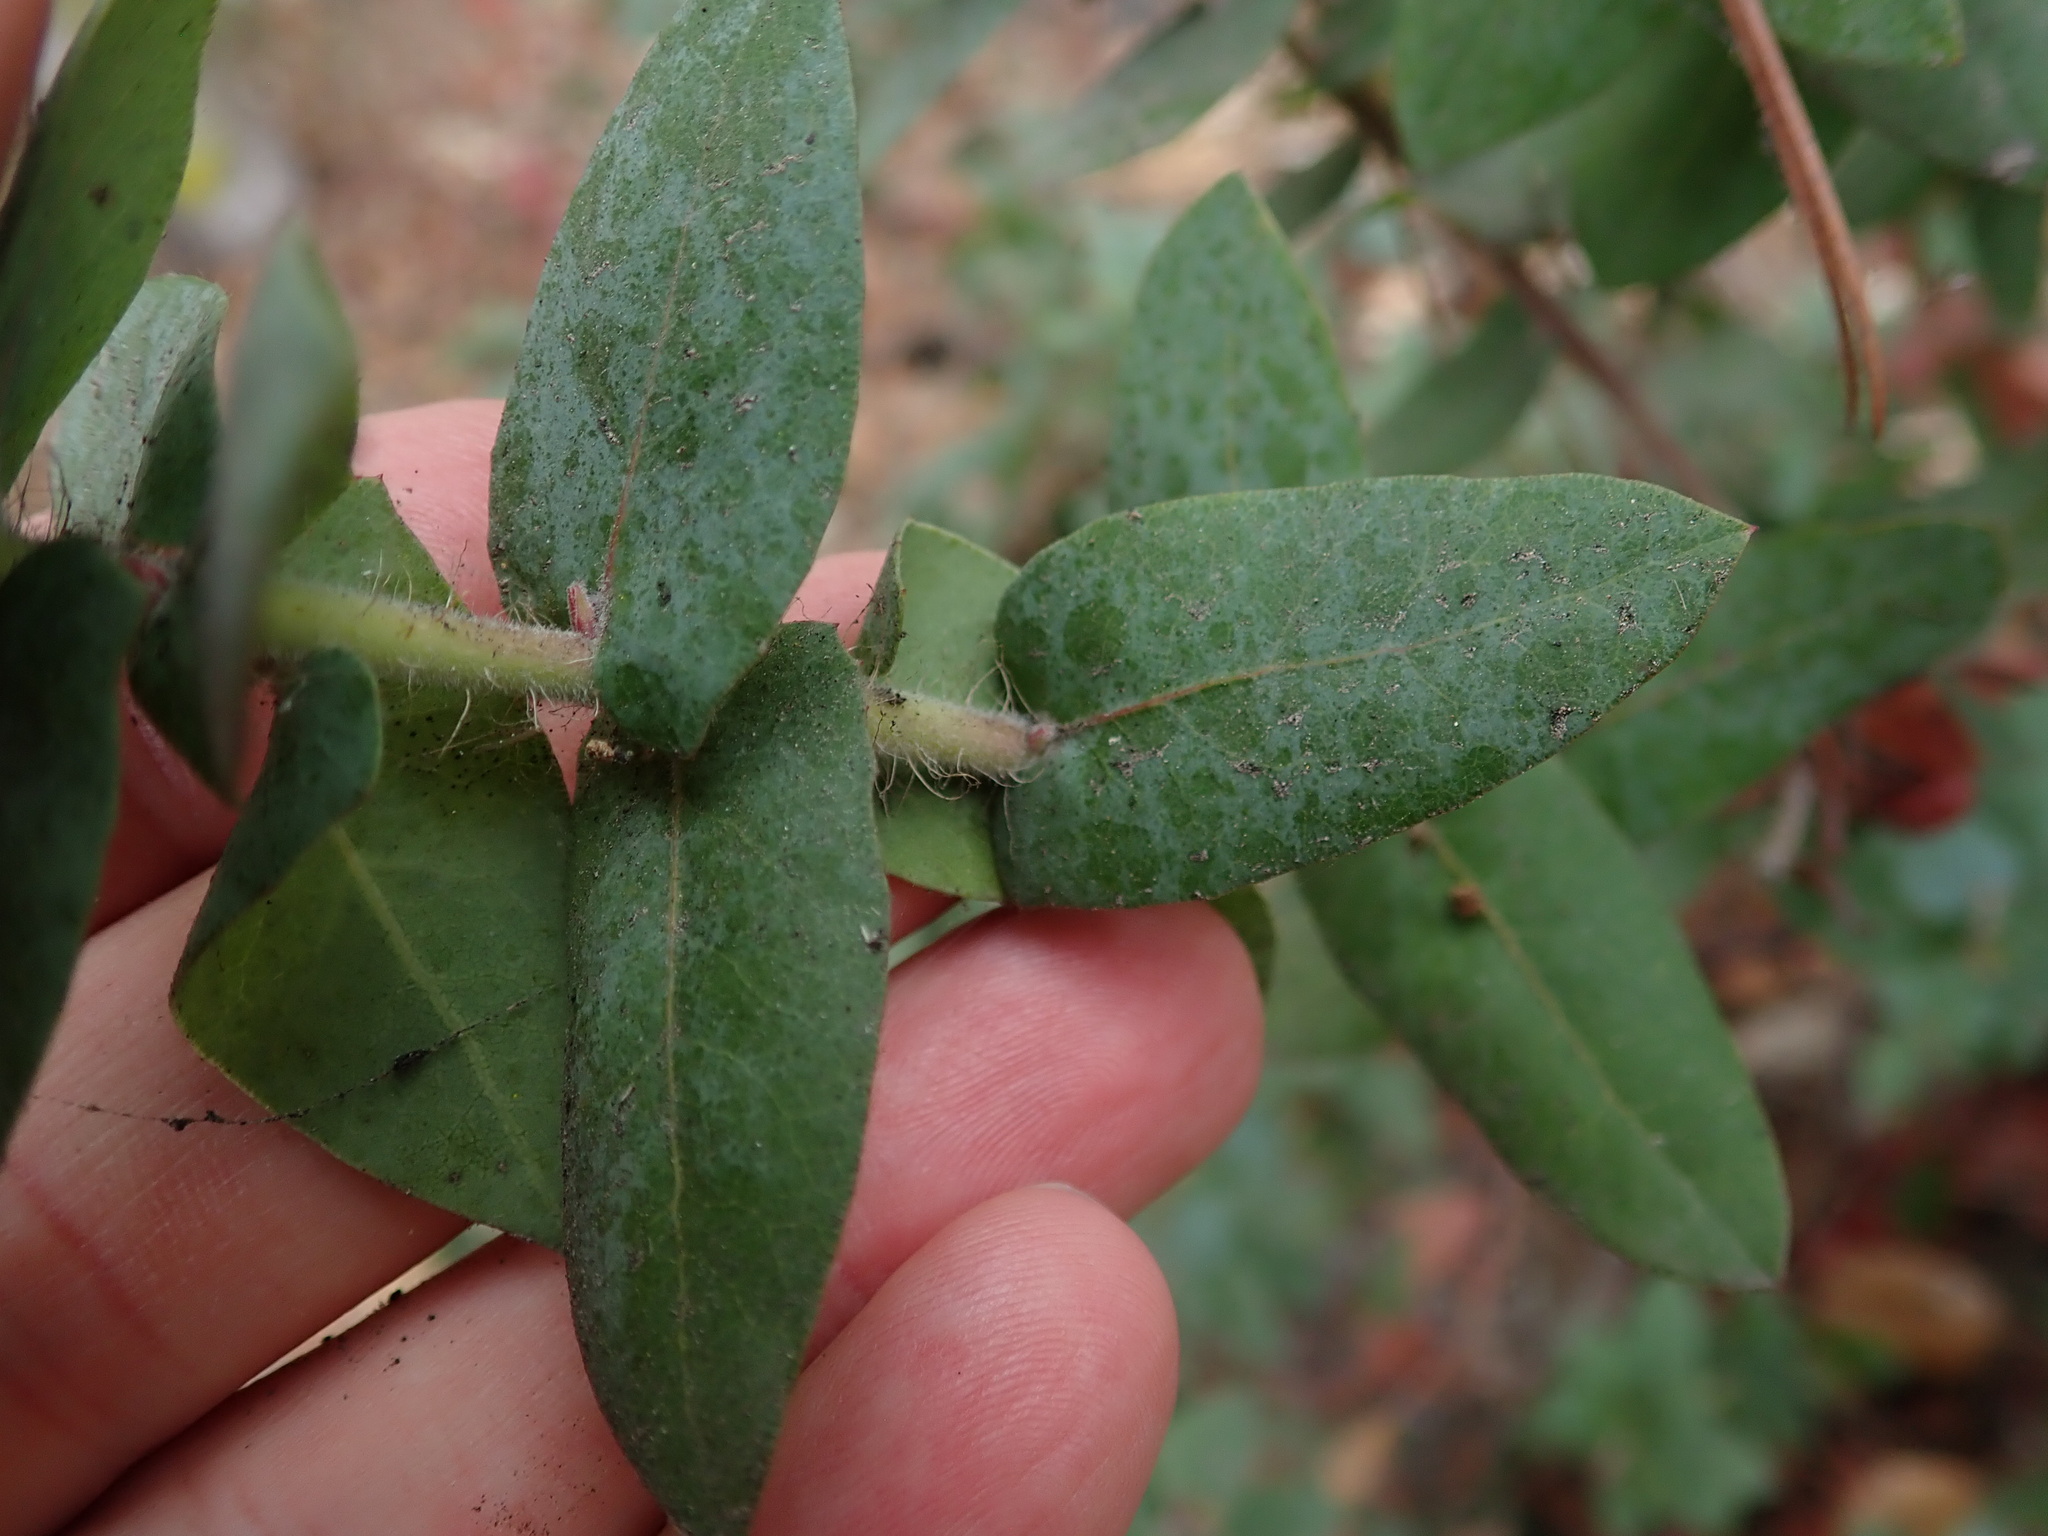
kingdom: Plantae
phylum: Tracheophyta
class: Magnoliopsida
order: Ericales
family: Ericaceae
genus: Arctostaphylos
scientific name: Arctostaphylos pajaroensis
